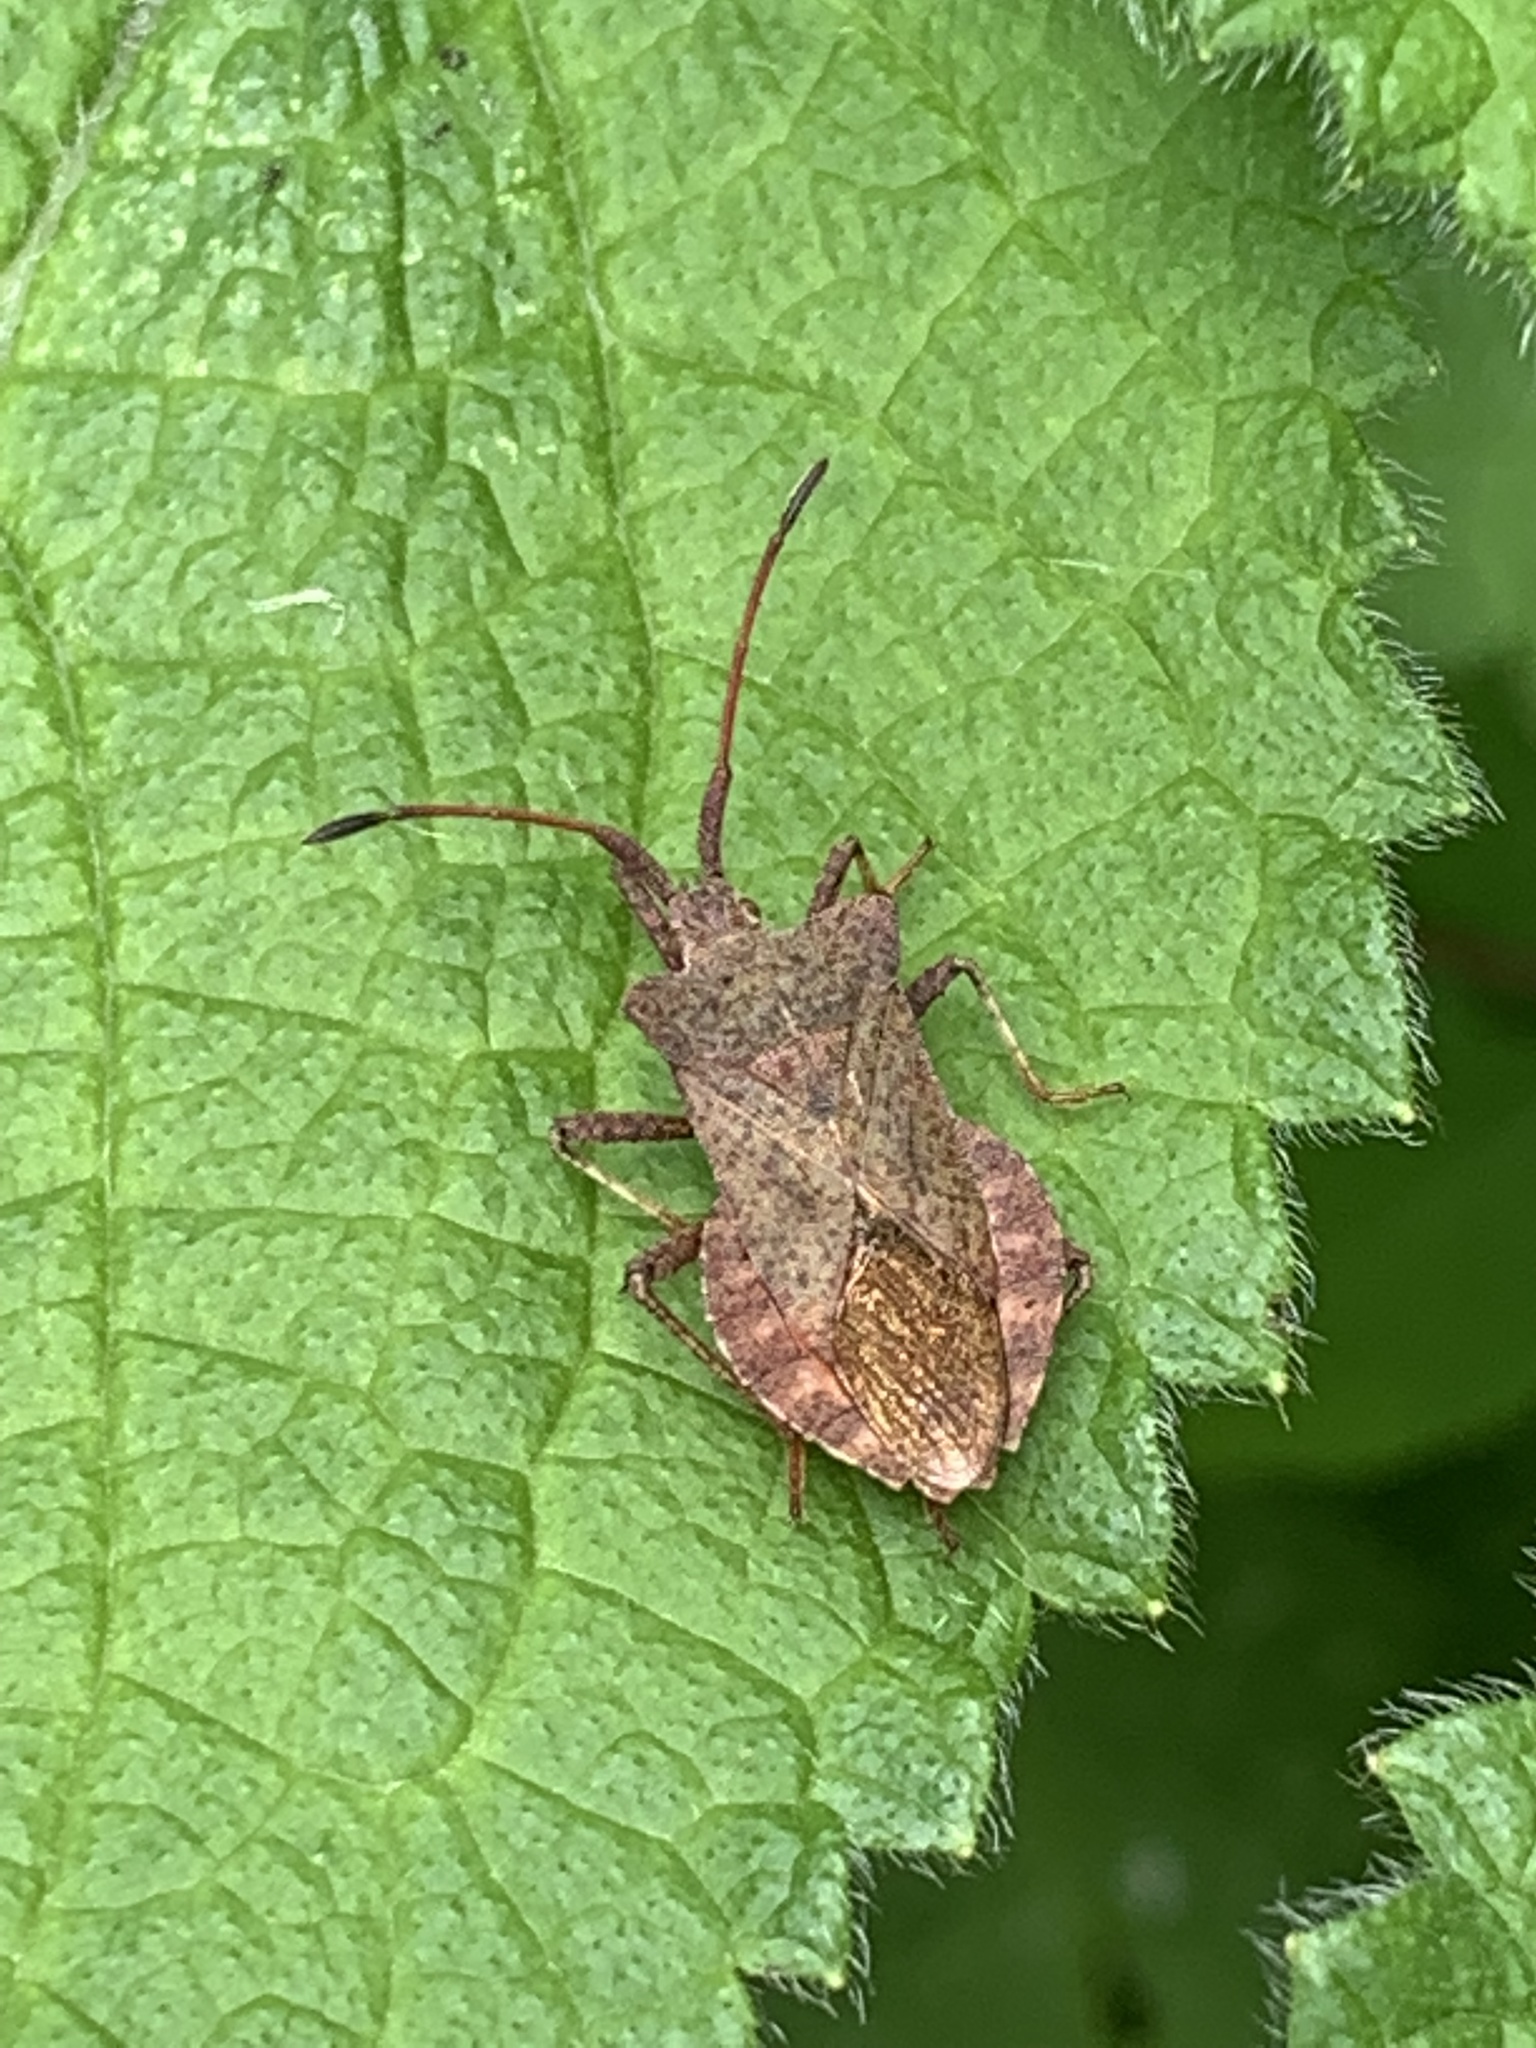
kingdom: Animalia
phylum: Arthropoda
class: Insecta
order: Hemiptera
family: Coreidae
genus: Coreus
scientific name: Coreus marginatus
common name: Dock bug
